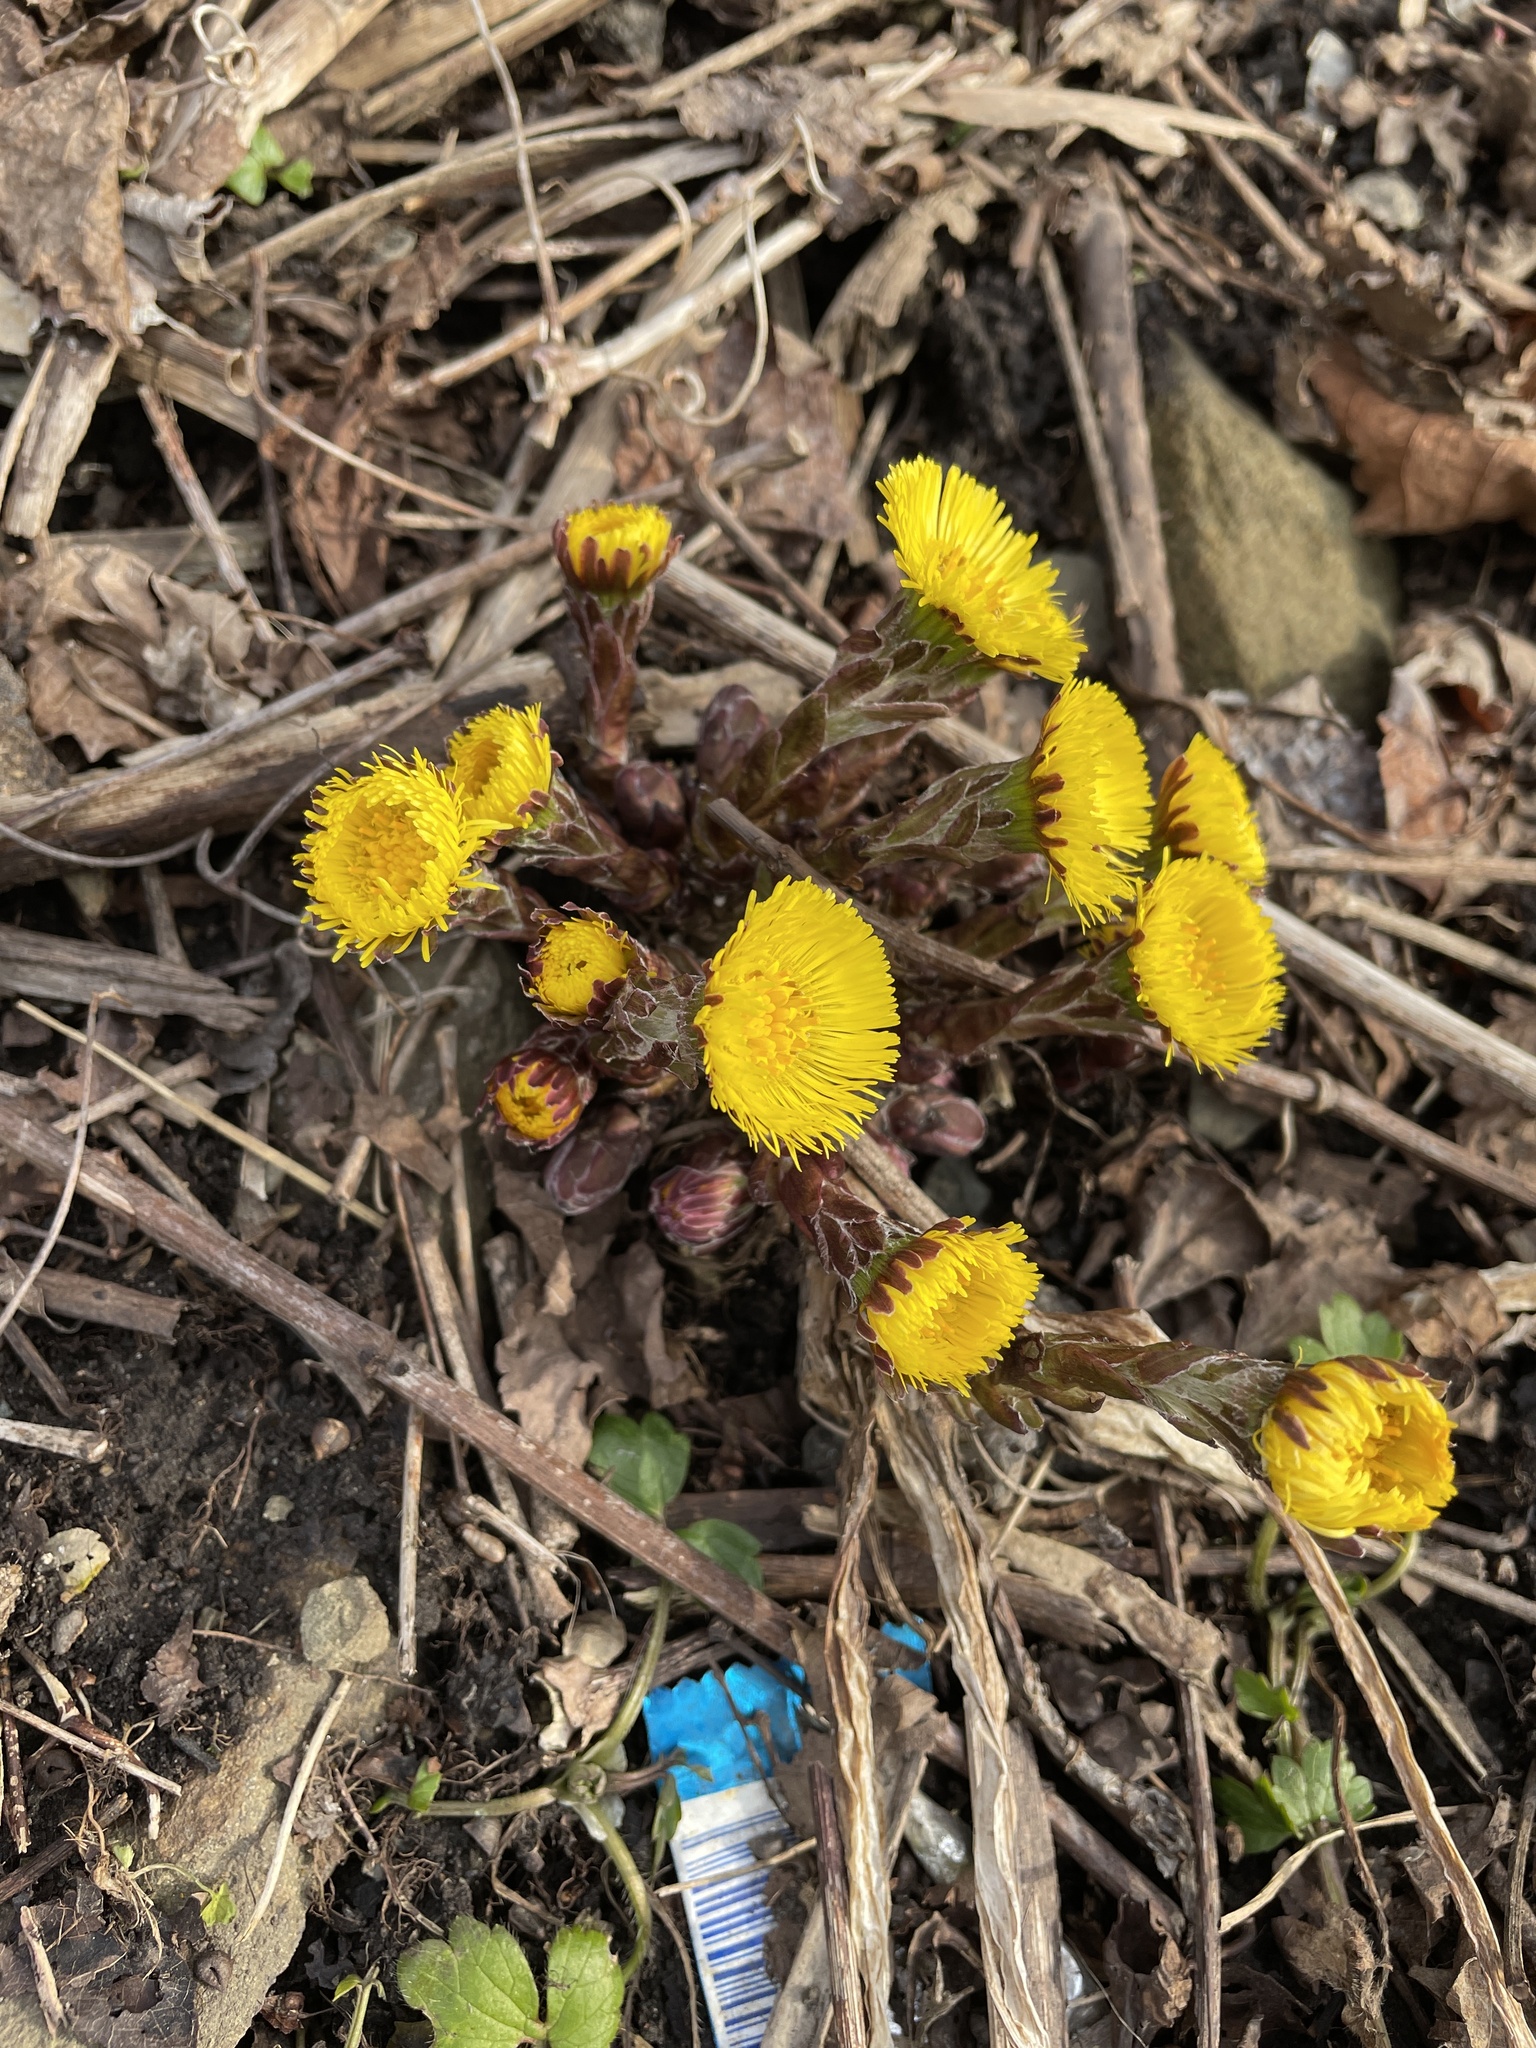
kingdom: Plantae
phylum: Tracheophyta
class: Magnoliopsida
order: Asterales
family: Asteraceae
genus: Tussilago
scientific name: Tussilago farfara
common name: Coltsfoot
